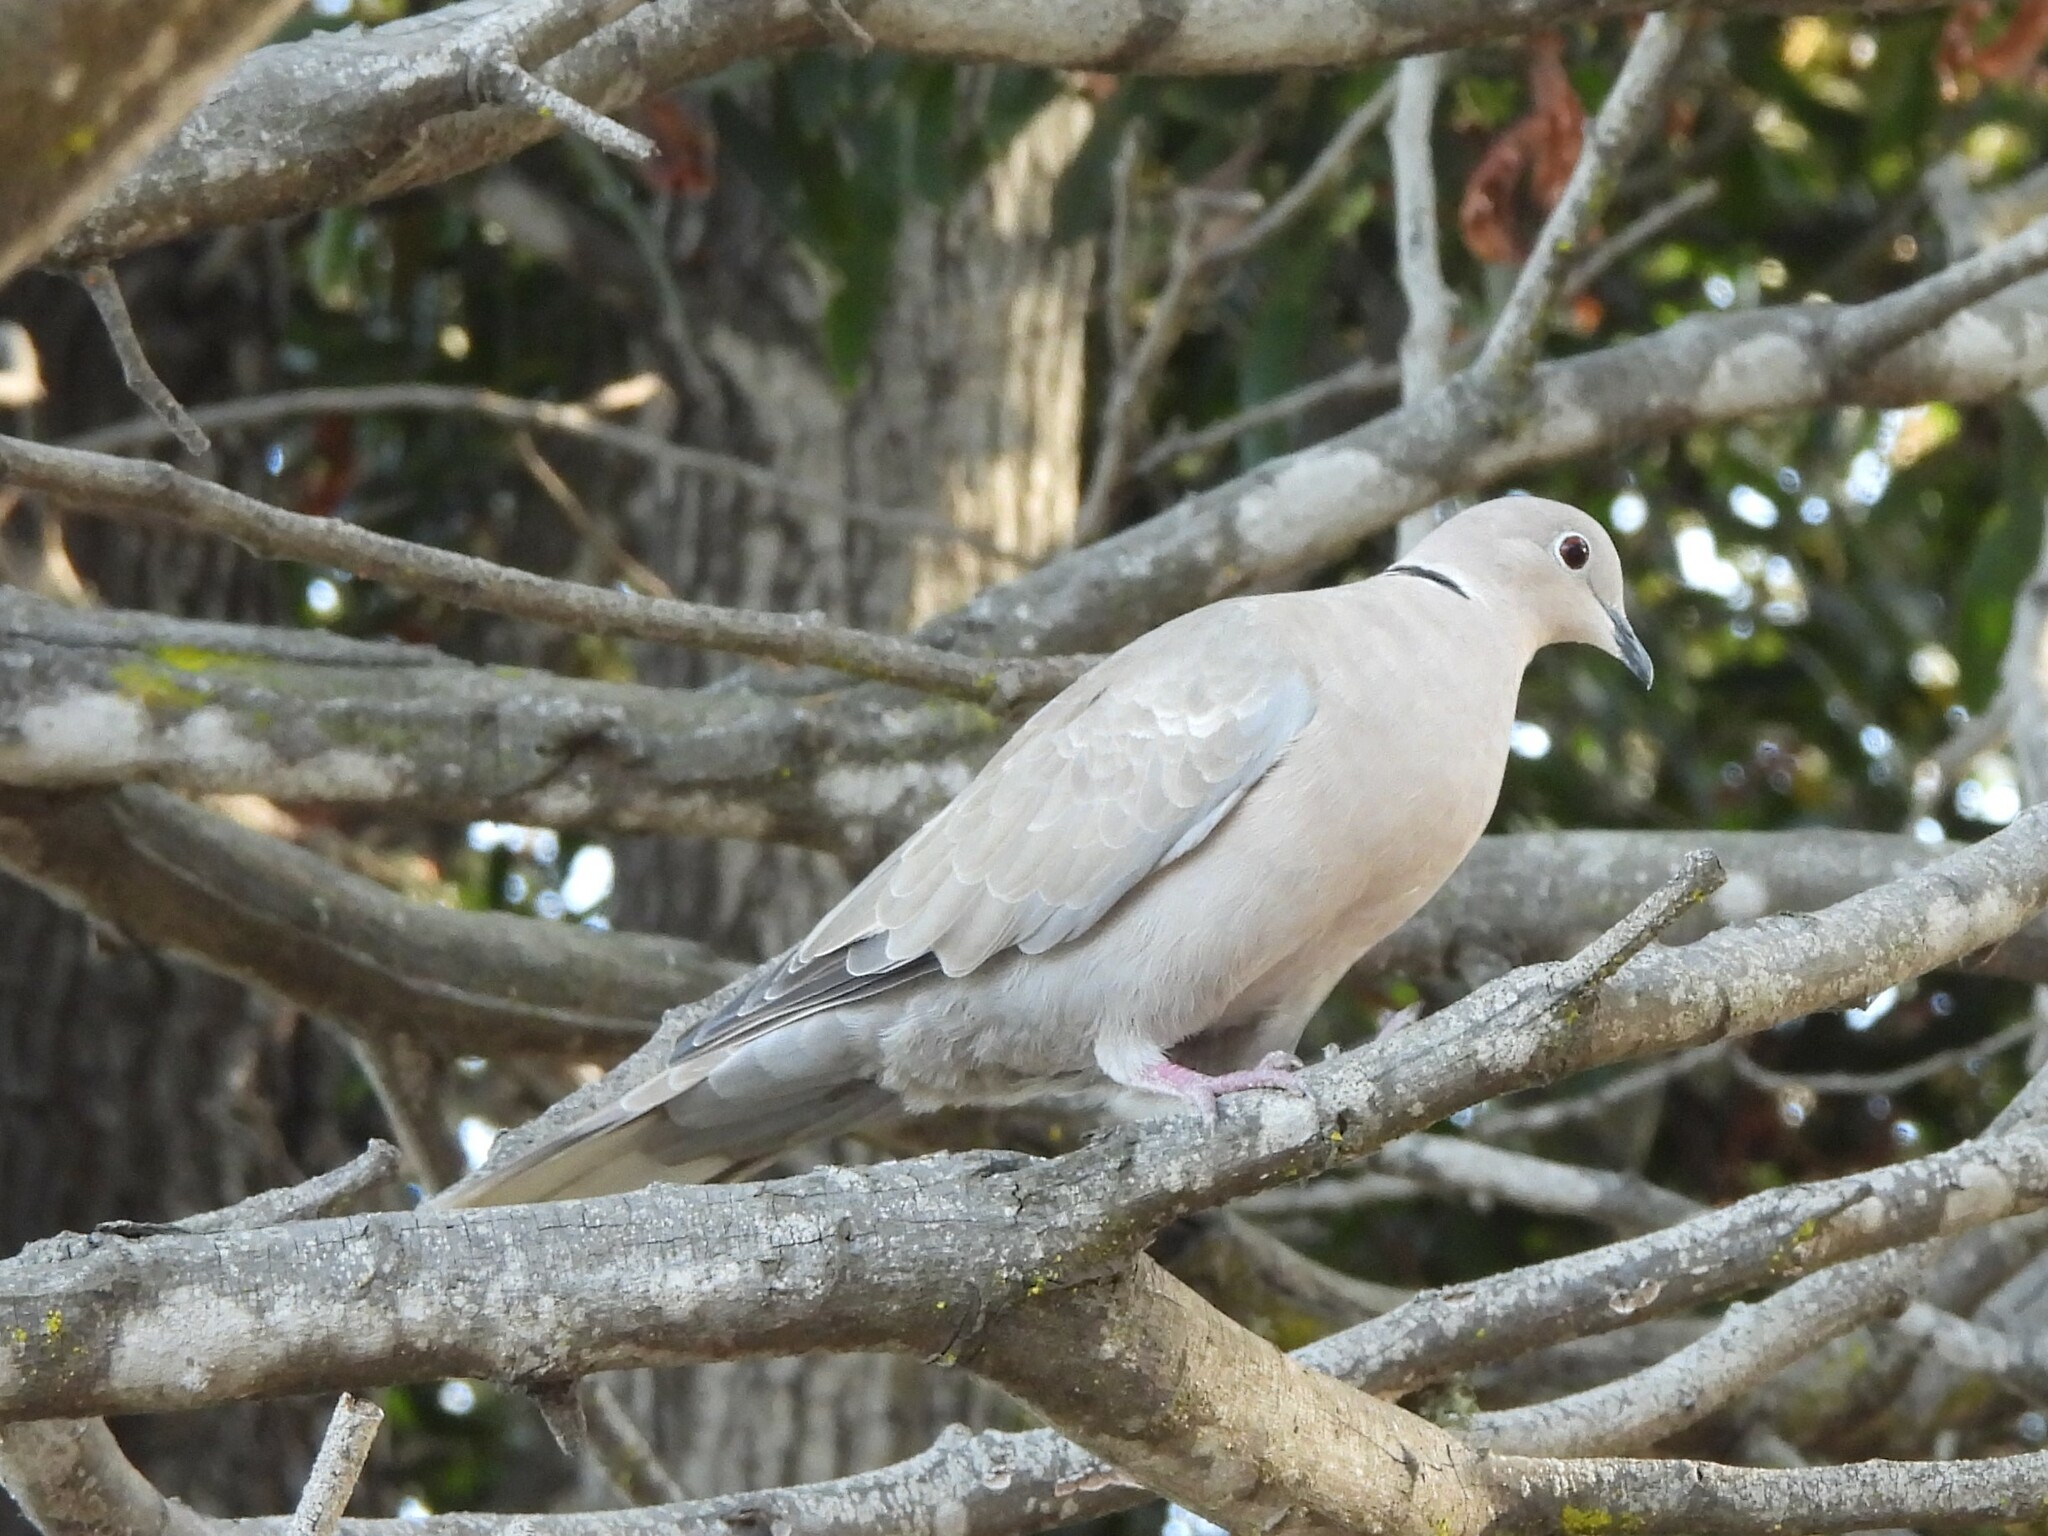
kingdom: Animalia
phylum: Chordata
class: Aves
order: Columbiformes
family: Columbidae
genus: Streptopelia
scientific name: Streptopelia decaocto
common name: Eurasian collared dove
